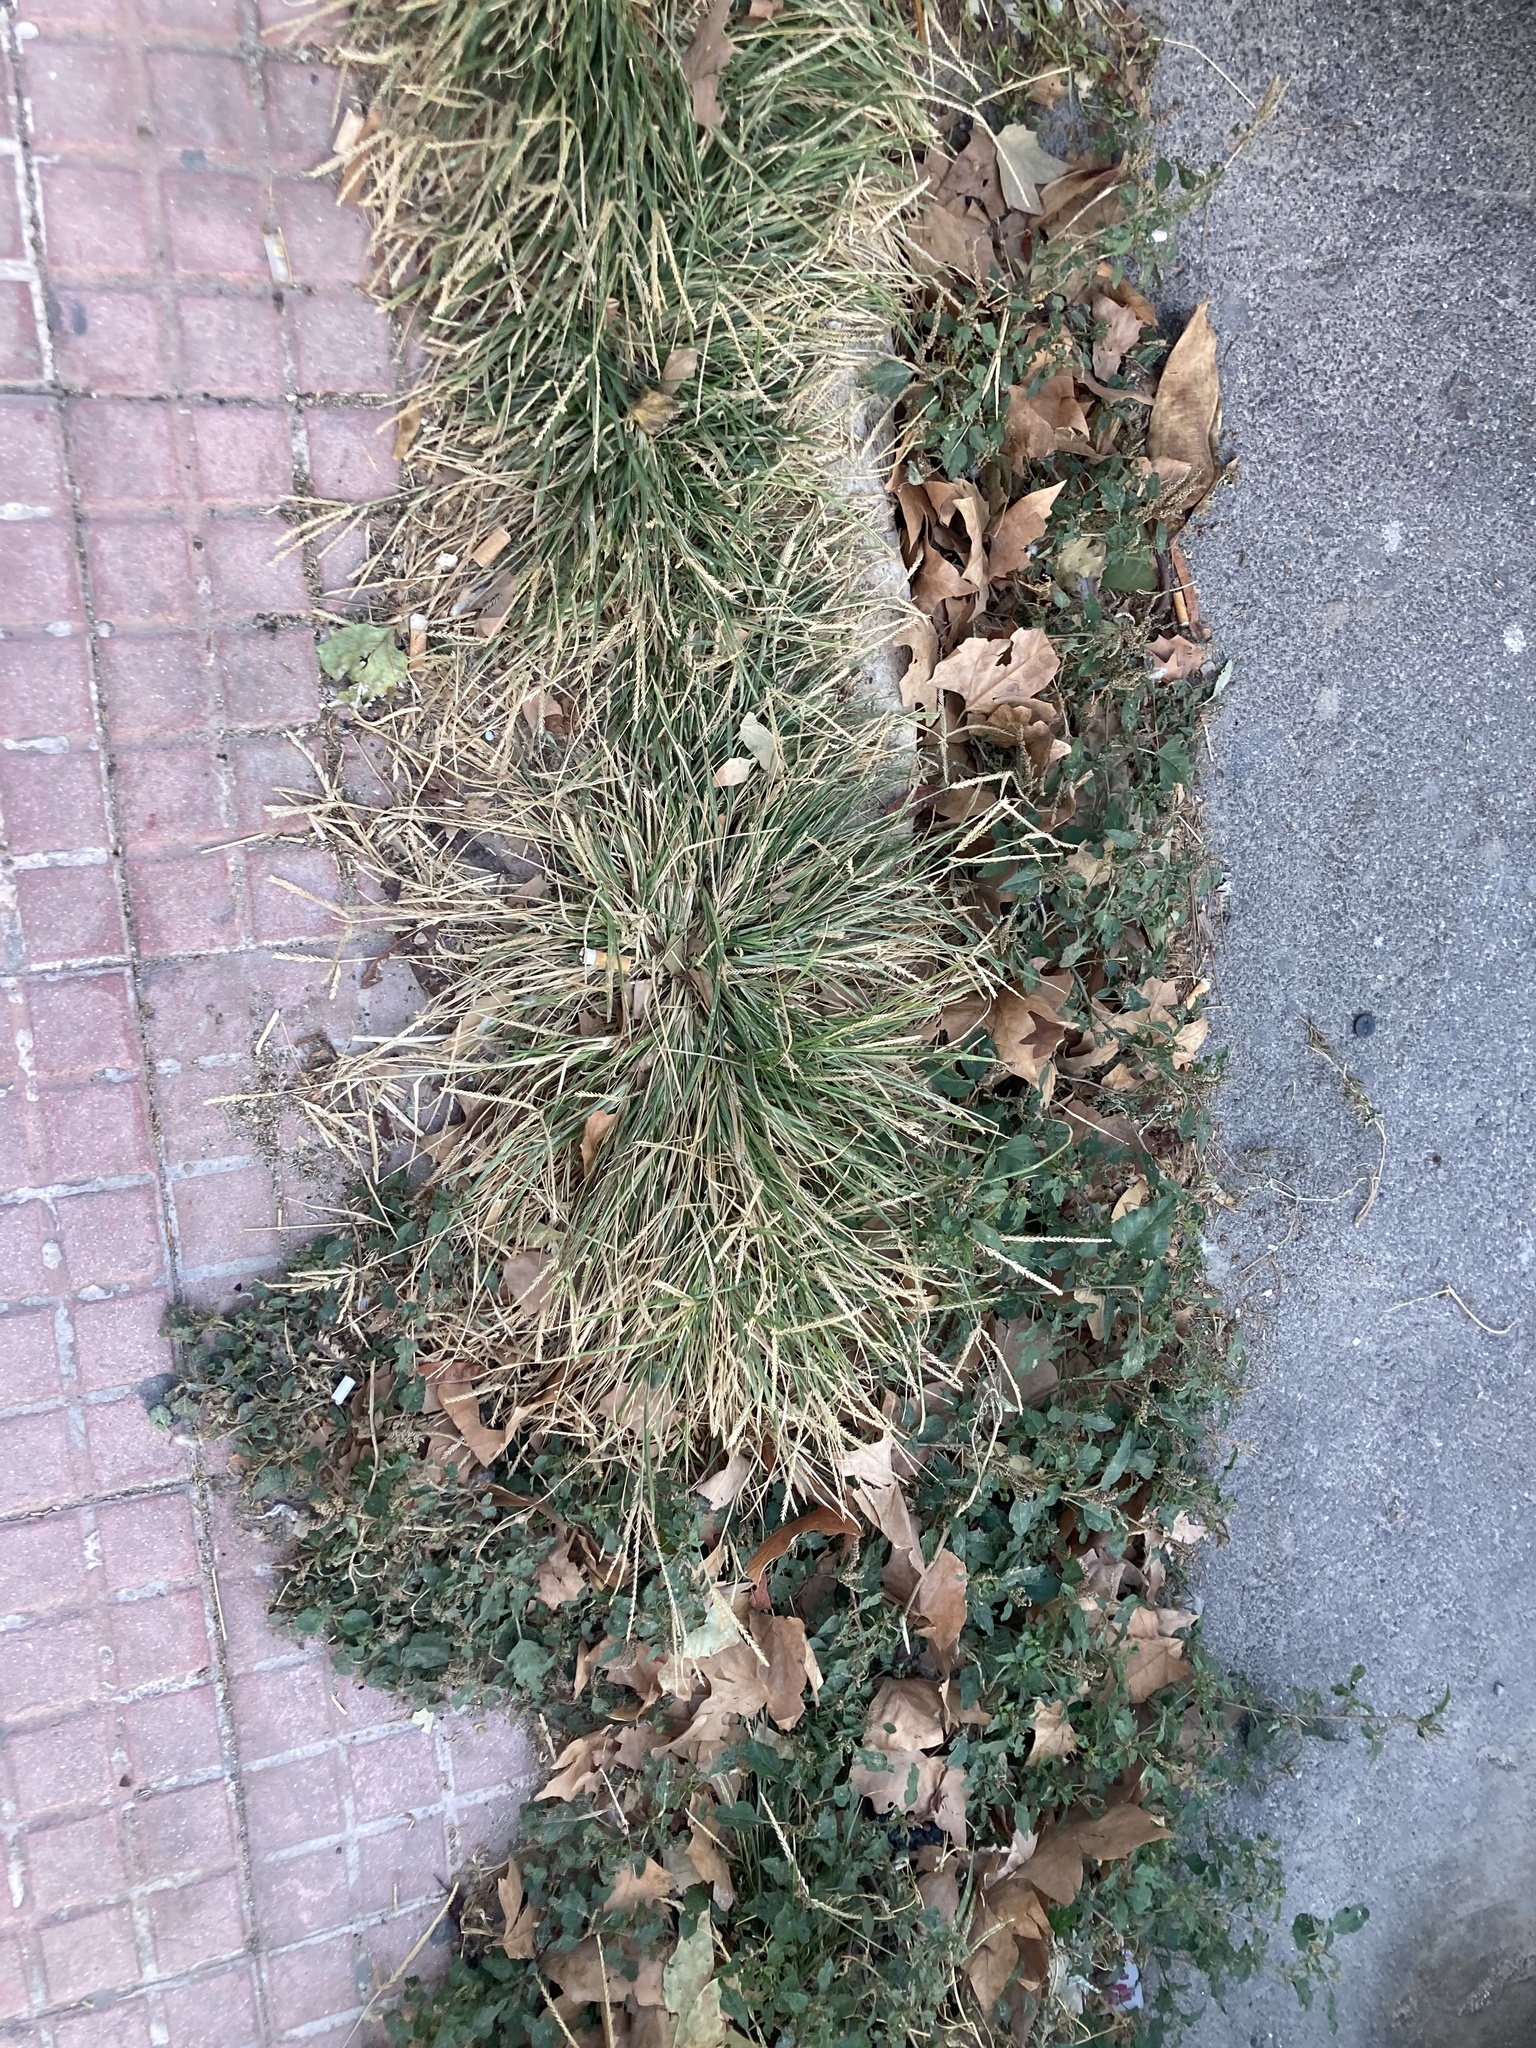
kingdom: Plantae
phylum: Tracheophyta
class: Liliopsida
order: Poales
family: Poaceae
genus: Eleusine
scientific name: Eleusine indica
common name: Yard-grass
